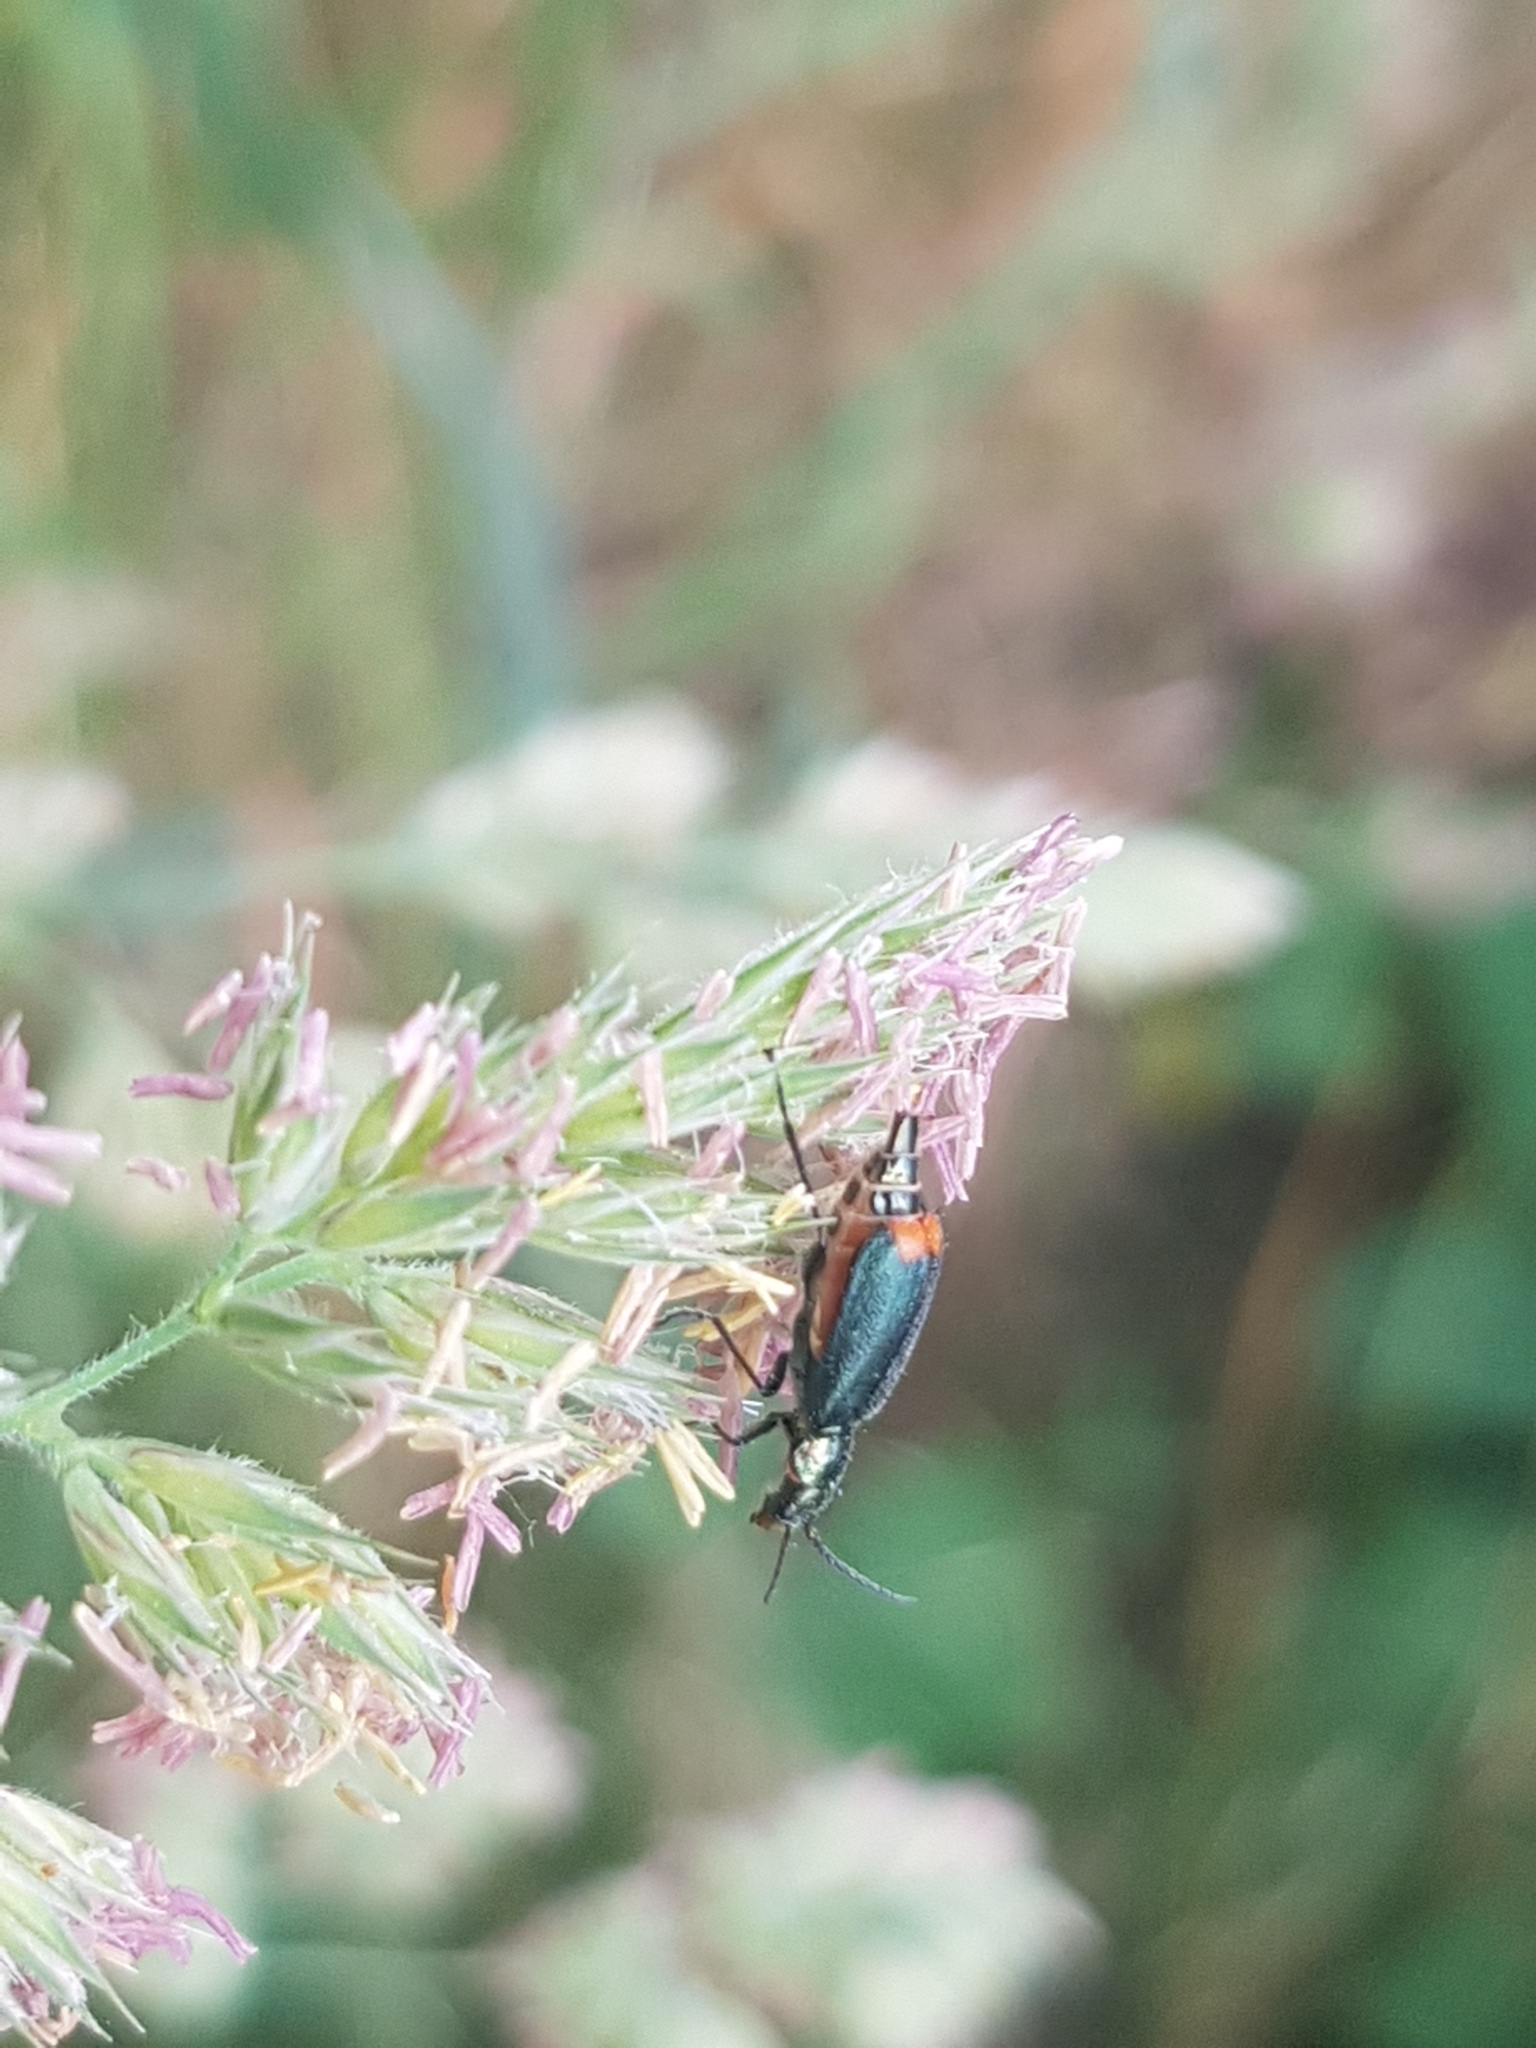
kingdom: Animalia
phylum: Arthropoda
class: Insecta
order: Coleoptera
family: Melyridae
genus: Malachius
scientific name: Malachius bipustulatus
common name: Malachite beetle
